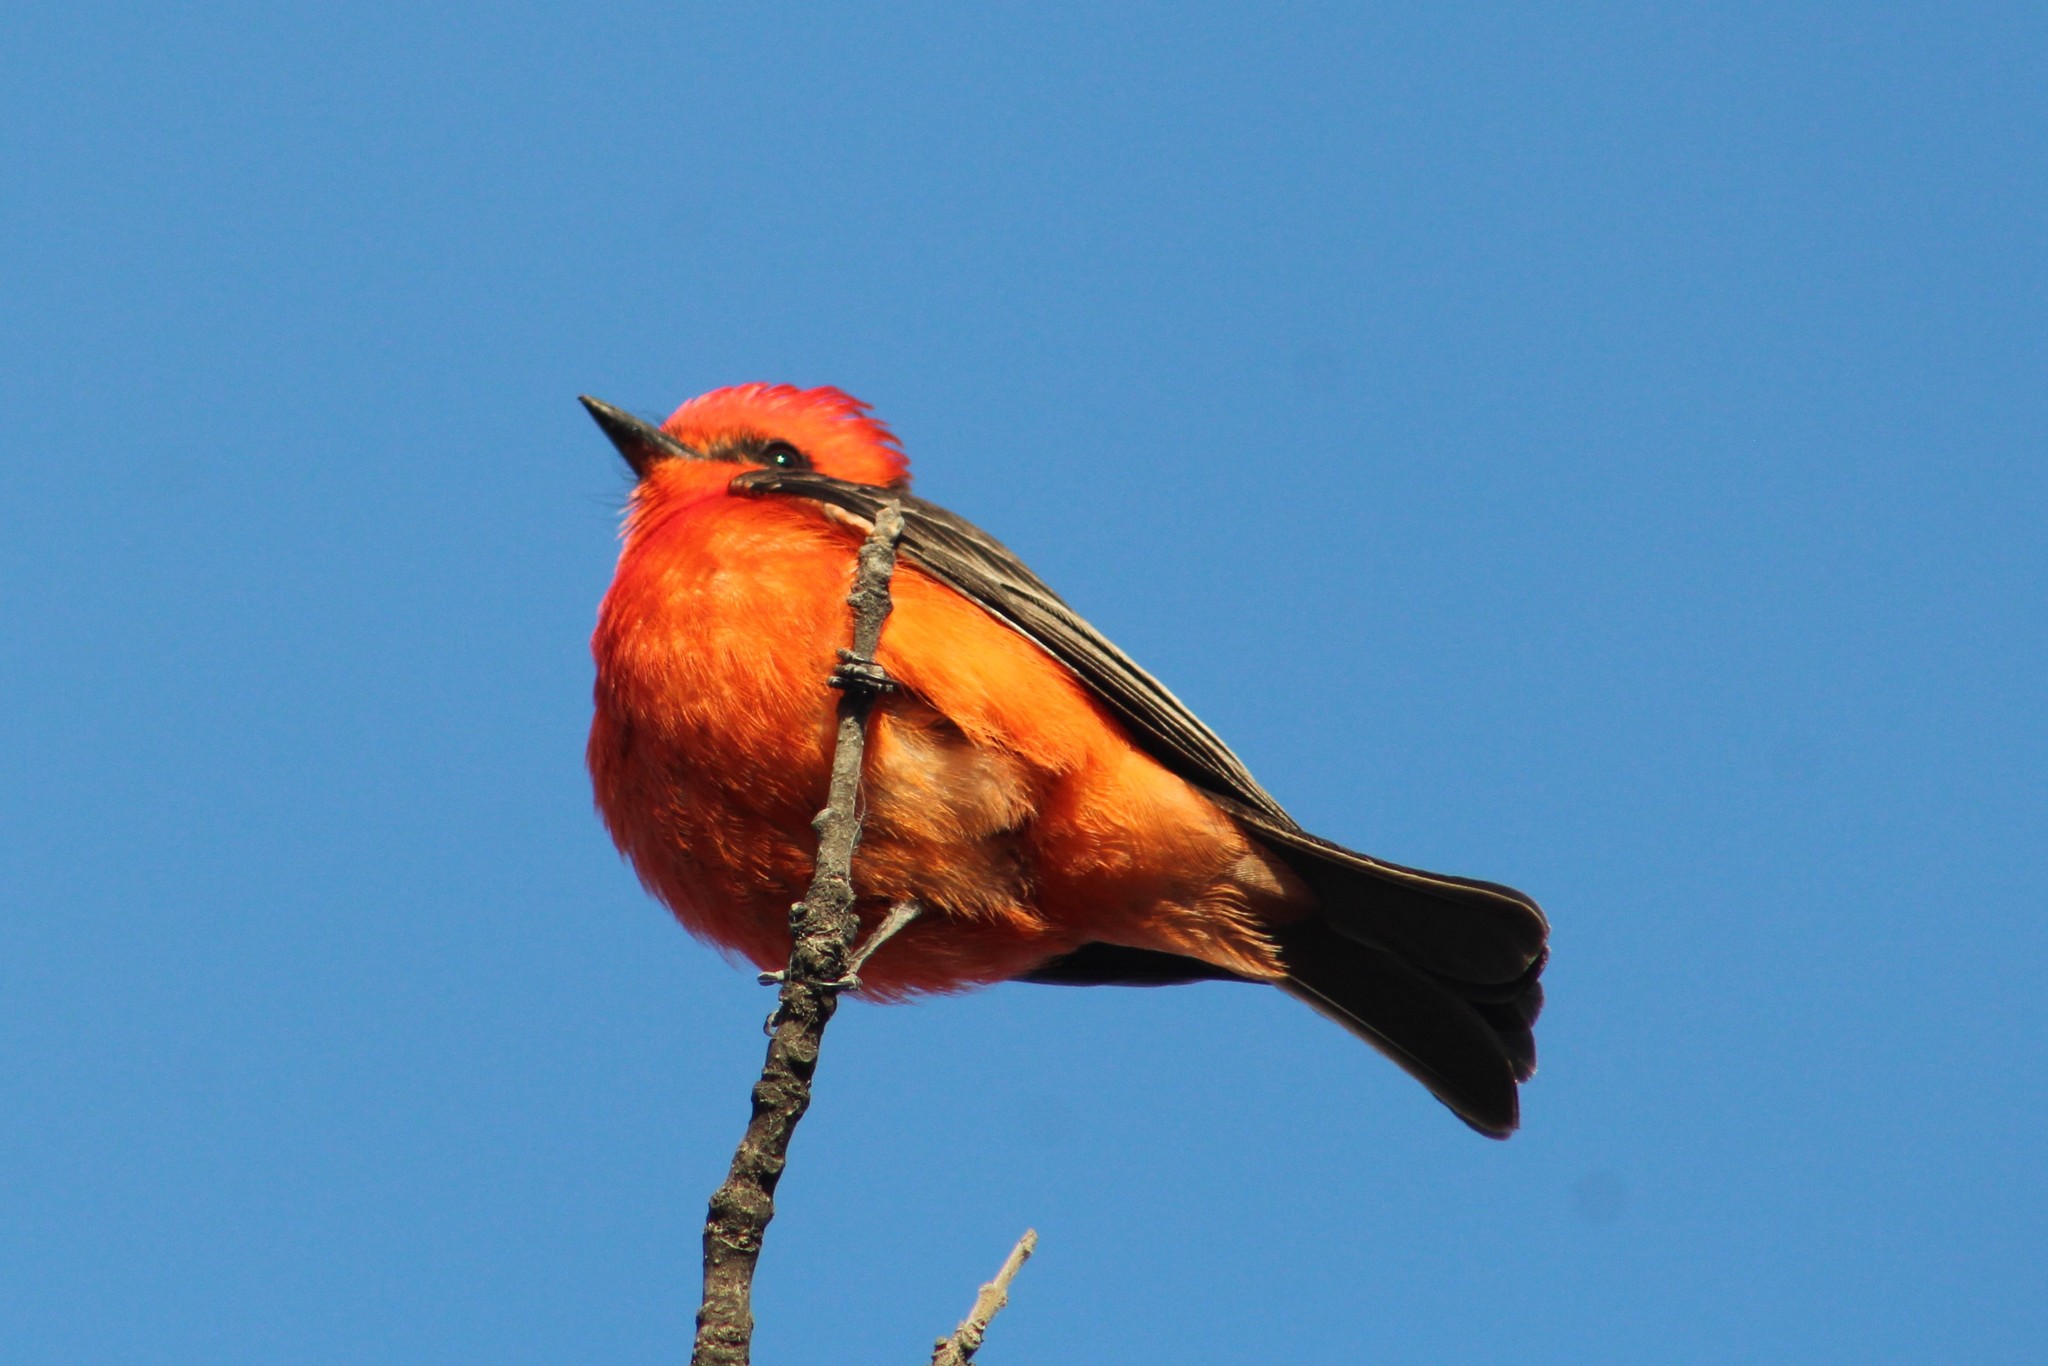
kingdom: Animalia
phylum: Chordata
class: Aves
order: Passeriformes
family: Tyrannidae
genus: Pyrocephalus
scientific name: Pyrocephalus rubinus
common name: Vermilion flycatcher
